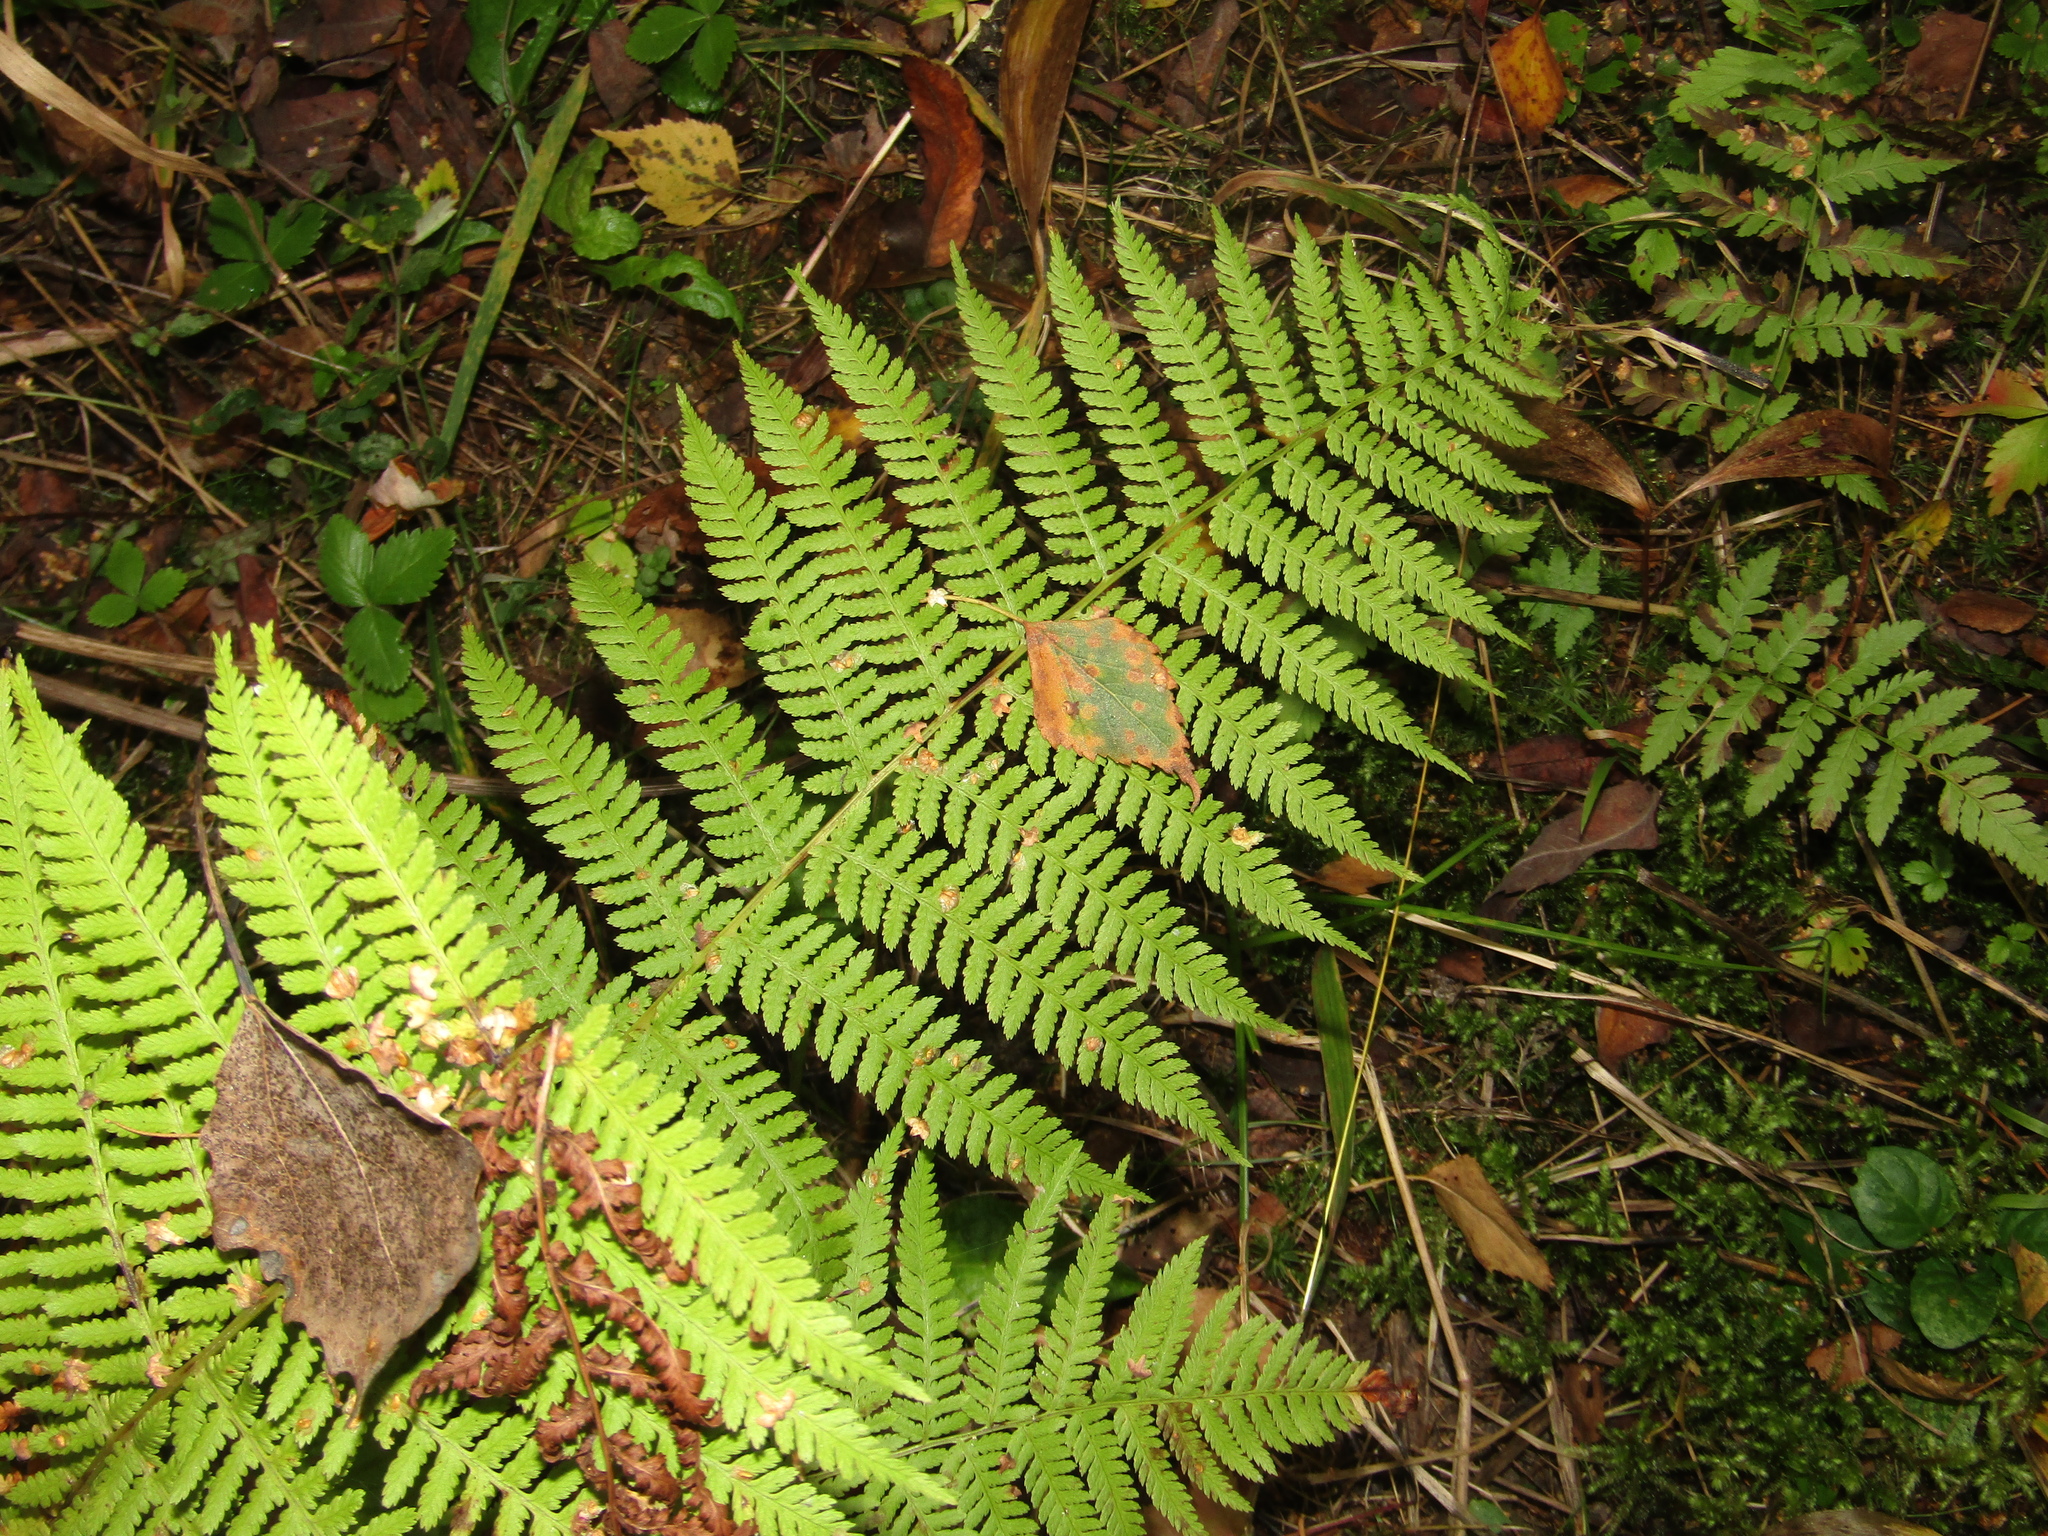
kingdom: Plantae
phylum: Tracheophyta
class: Polypodiopsida
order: Polypodiales
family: Athyriaceae
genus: Athyrium
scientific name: Athyrium filix-femina
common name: Lady fern
